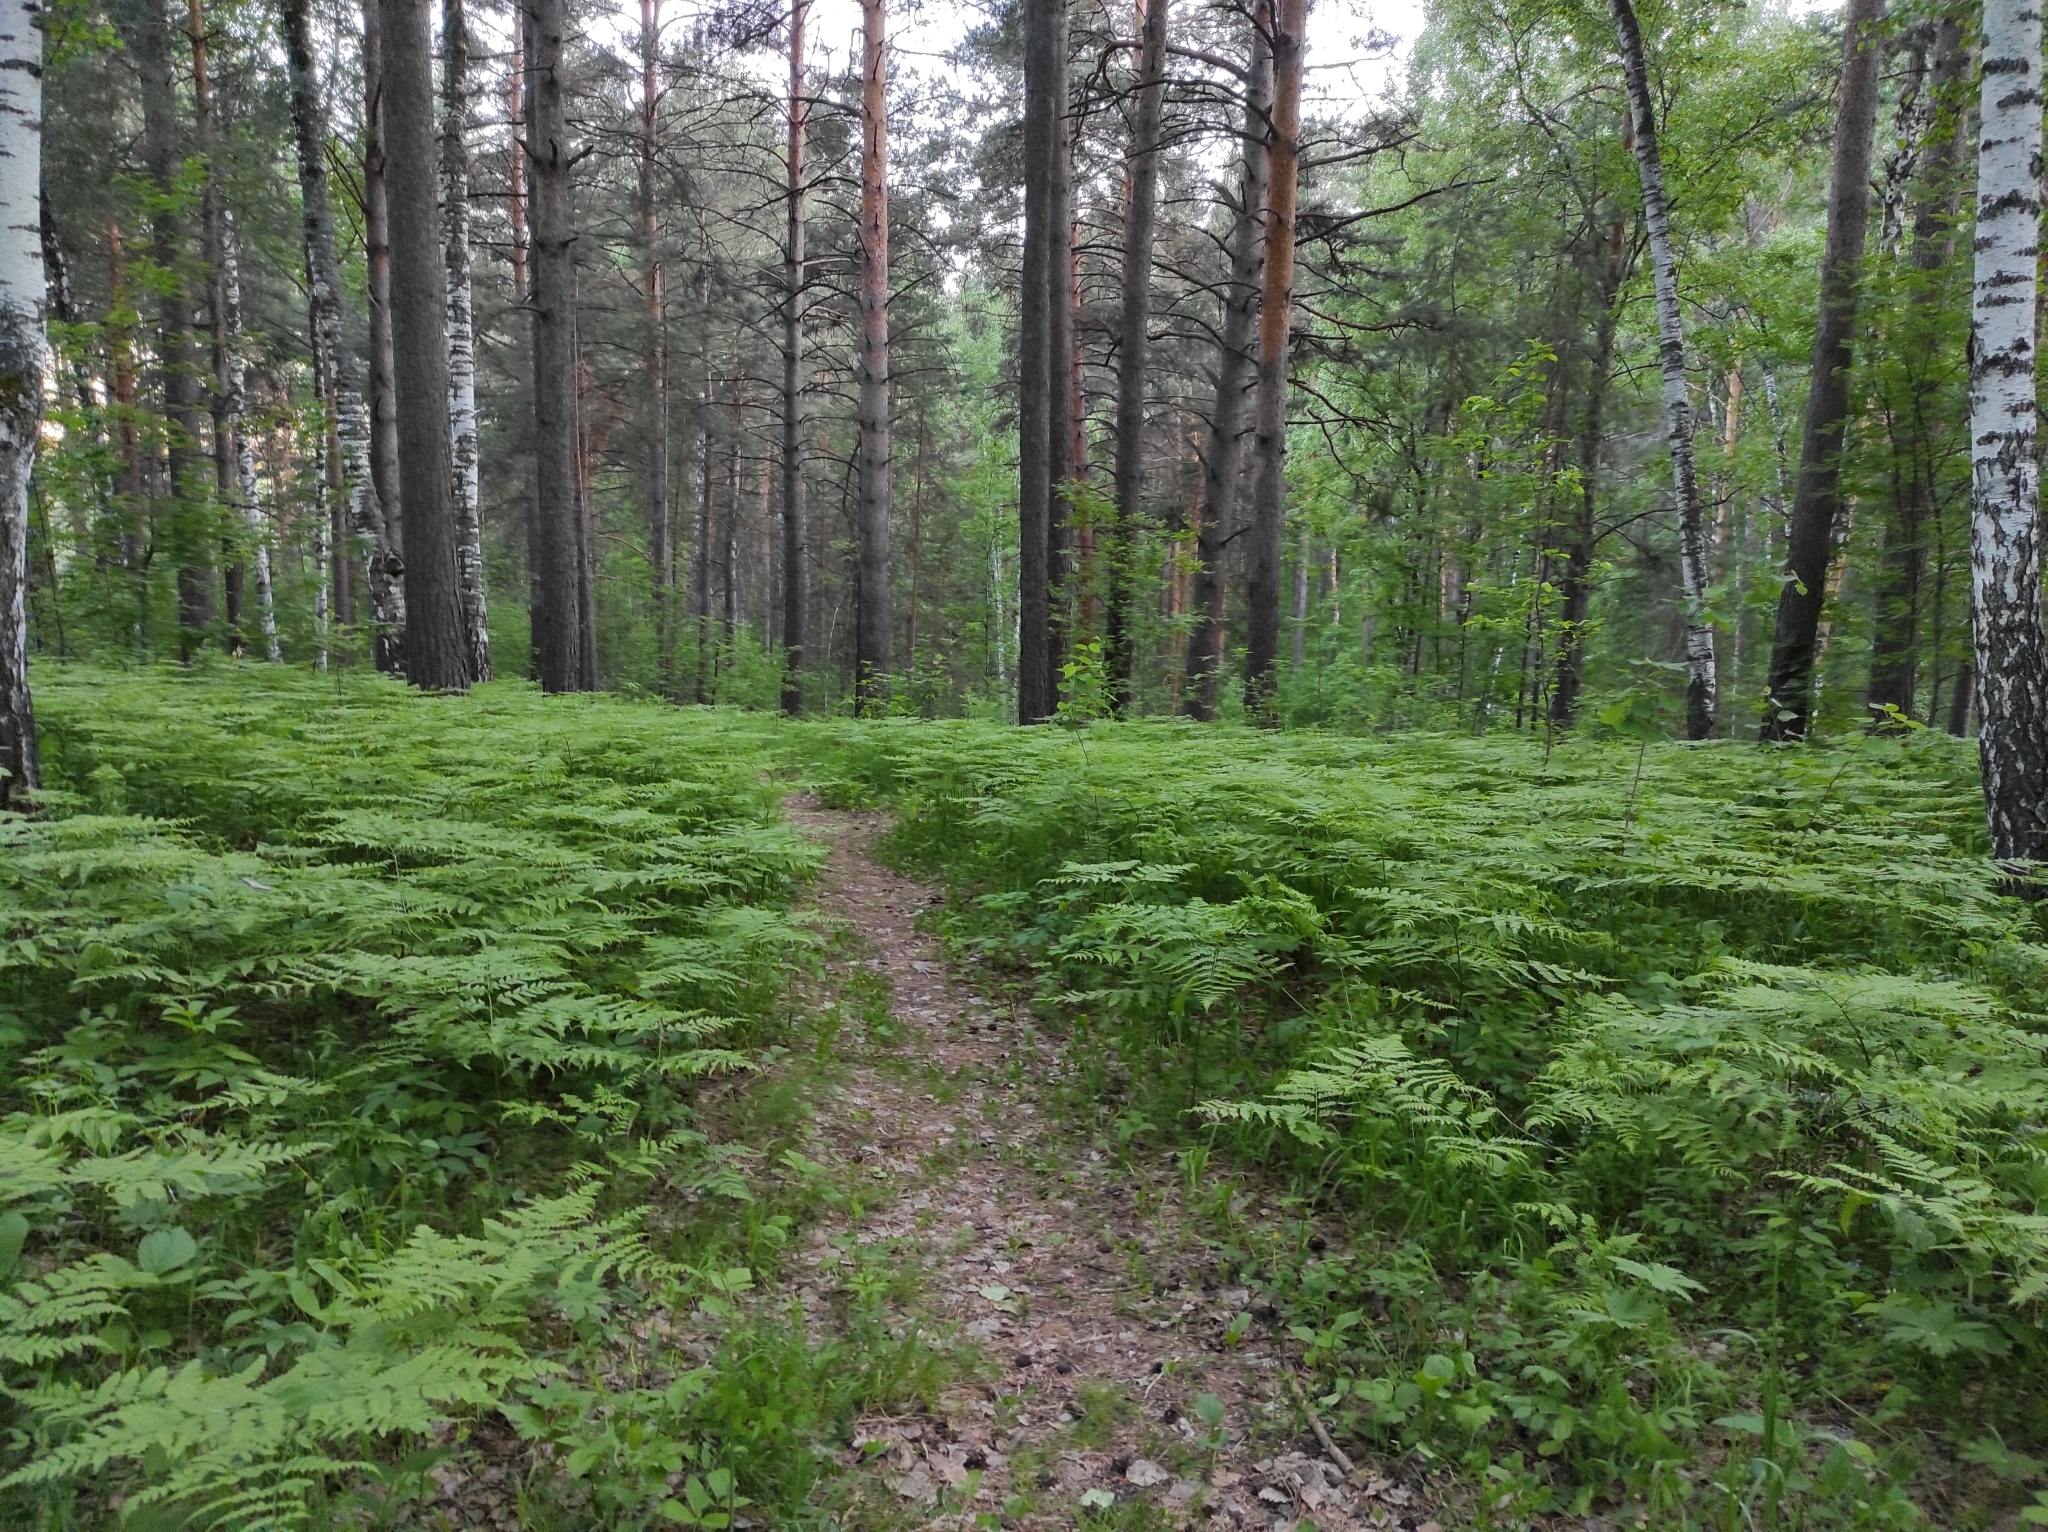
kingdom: Plantae
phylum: Tracheophyta
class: Polypodiopsida
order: Polypodiales
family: Dennstaedtiaceae
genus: Pteridium
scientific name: Pteridium aquilinum
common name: Bracken
